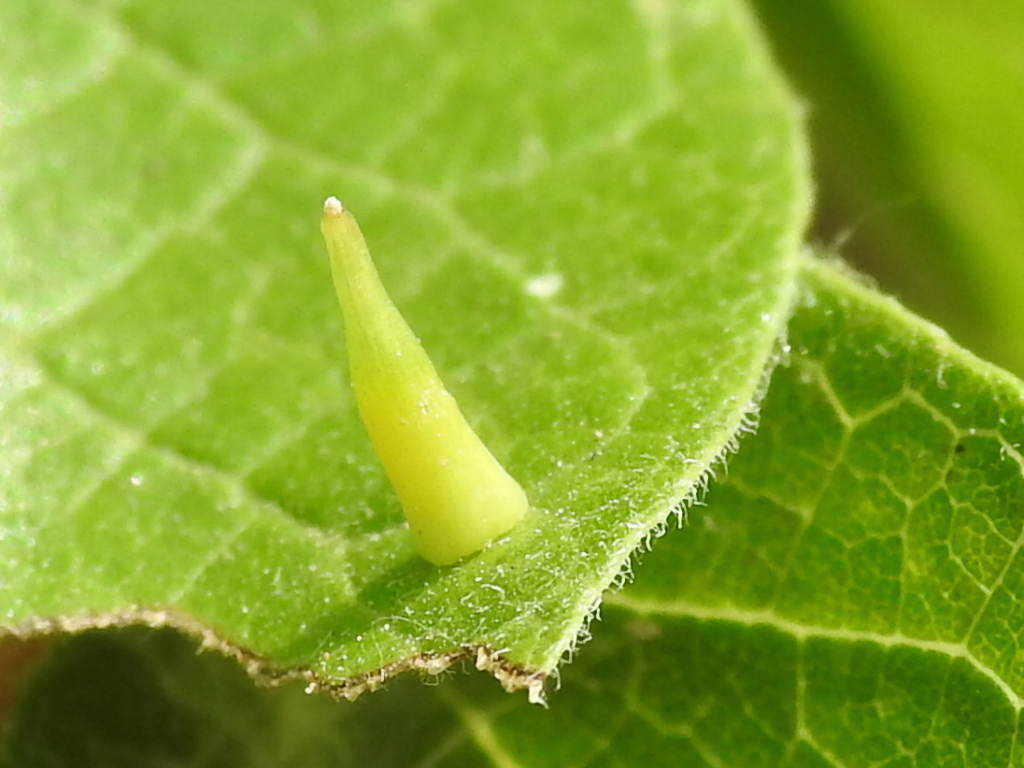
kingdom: Animalia
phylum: Arthropoda
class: Insecta
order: Diptera
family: Cecidomyiidae
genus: Celticecis
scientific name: Celticecis subulata
